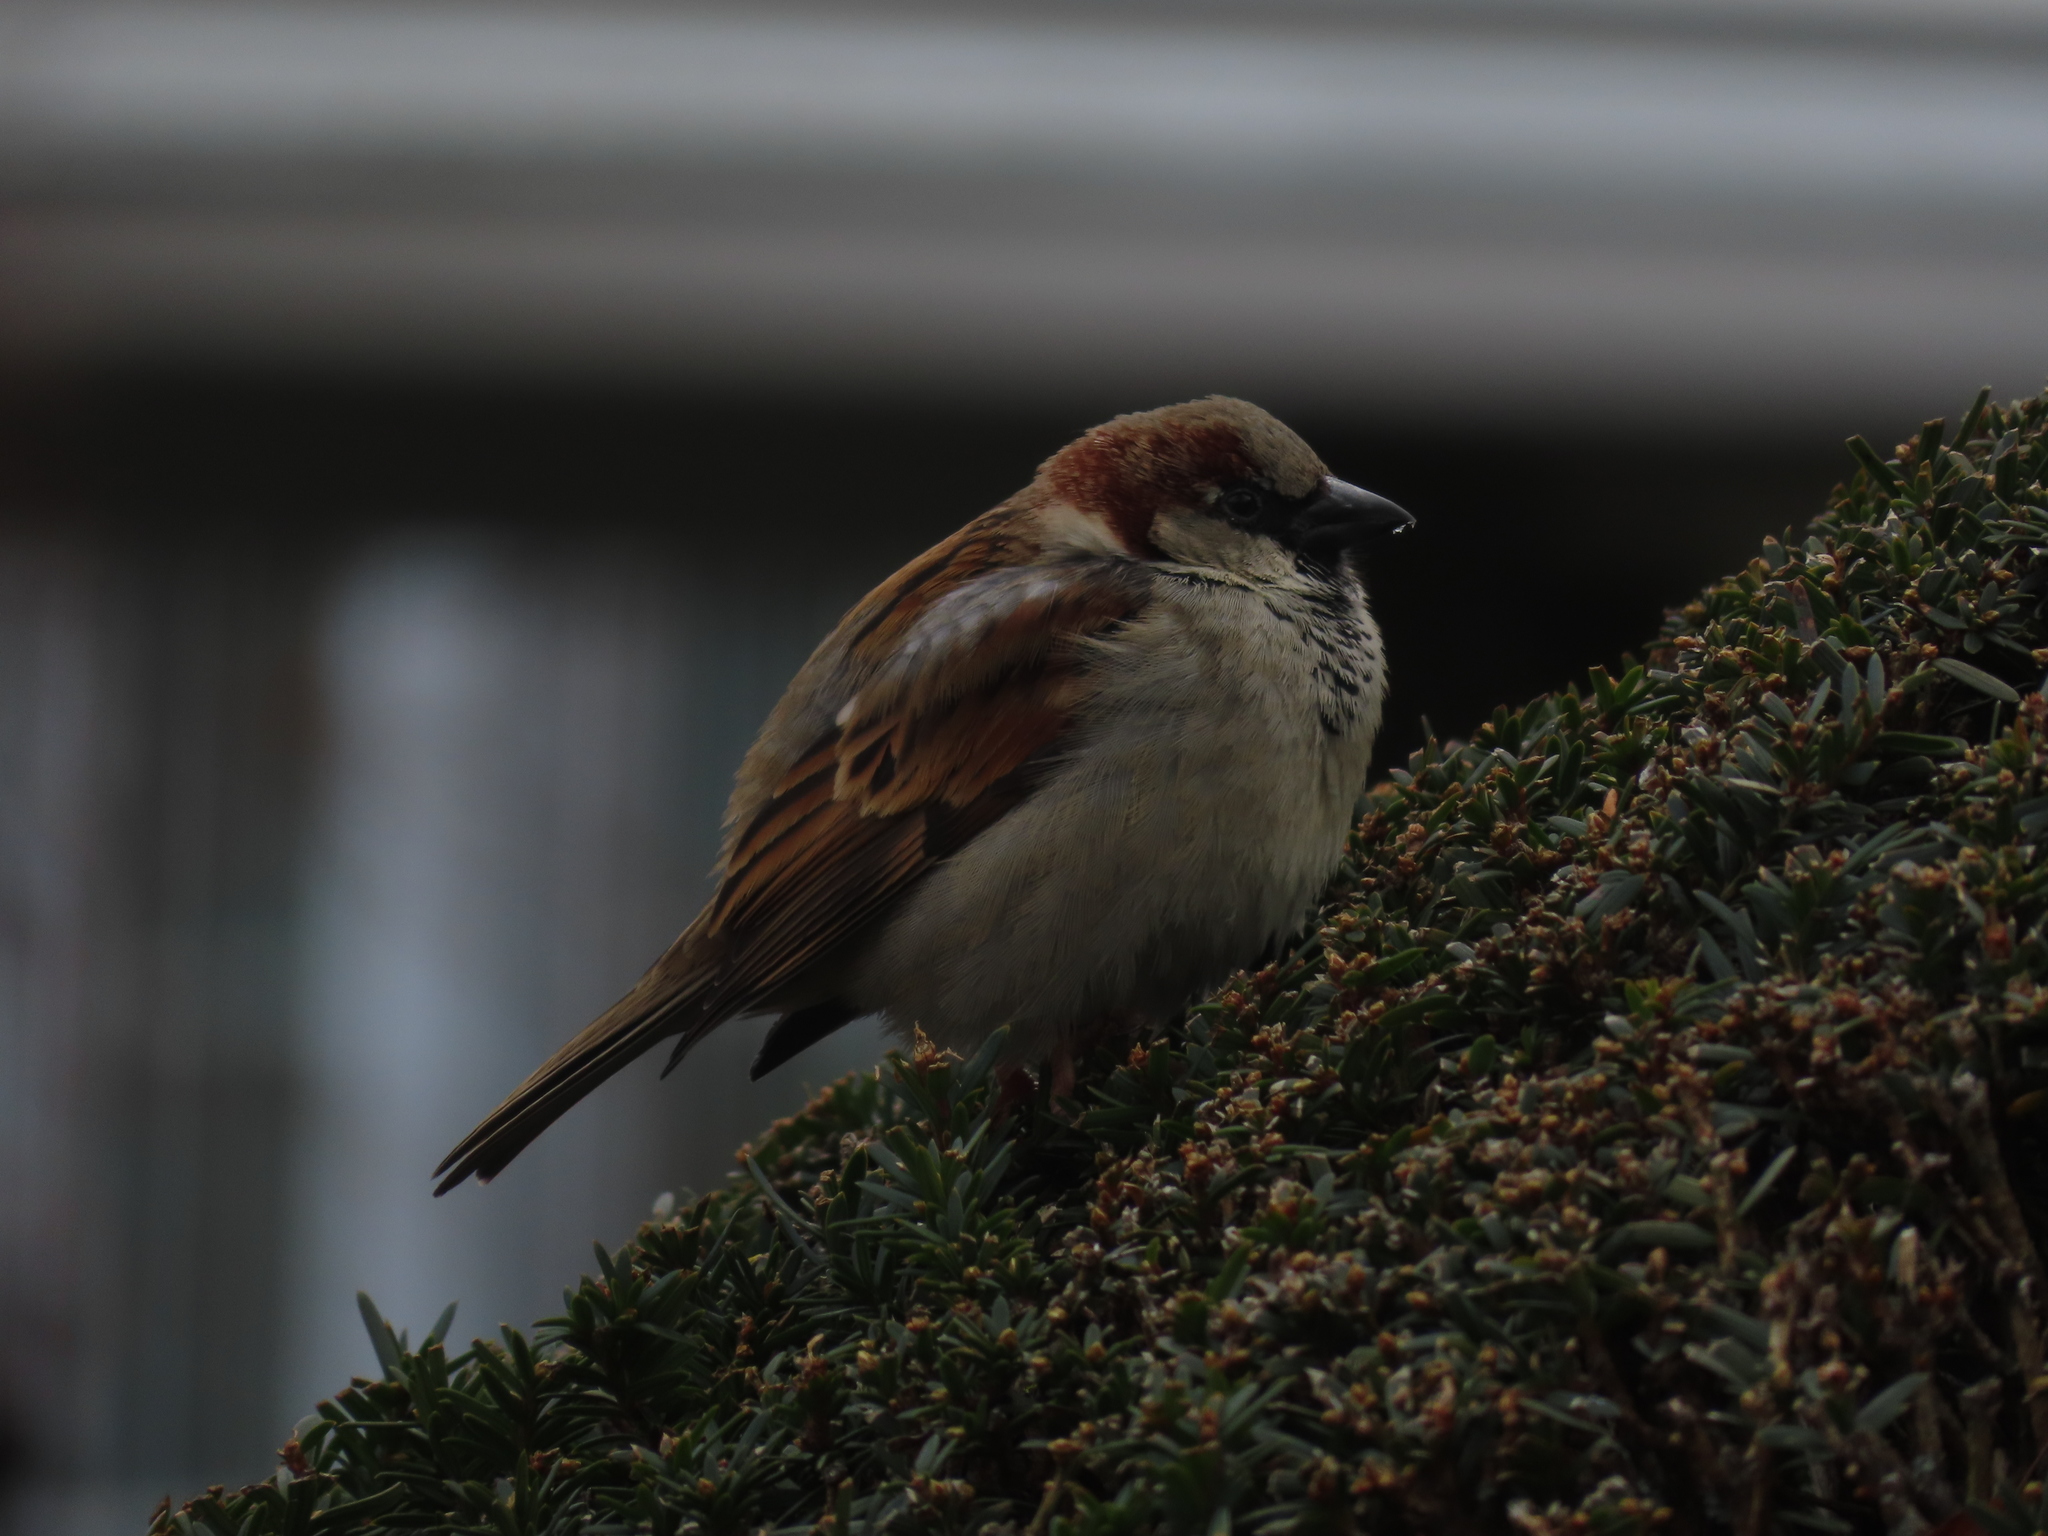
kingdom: Animalia
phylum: Chordata
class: Aves
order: Passeriformes
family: Passeridae
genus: Passer
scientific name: Passer domesticus
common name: House sparrow
